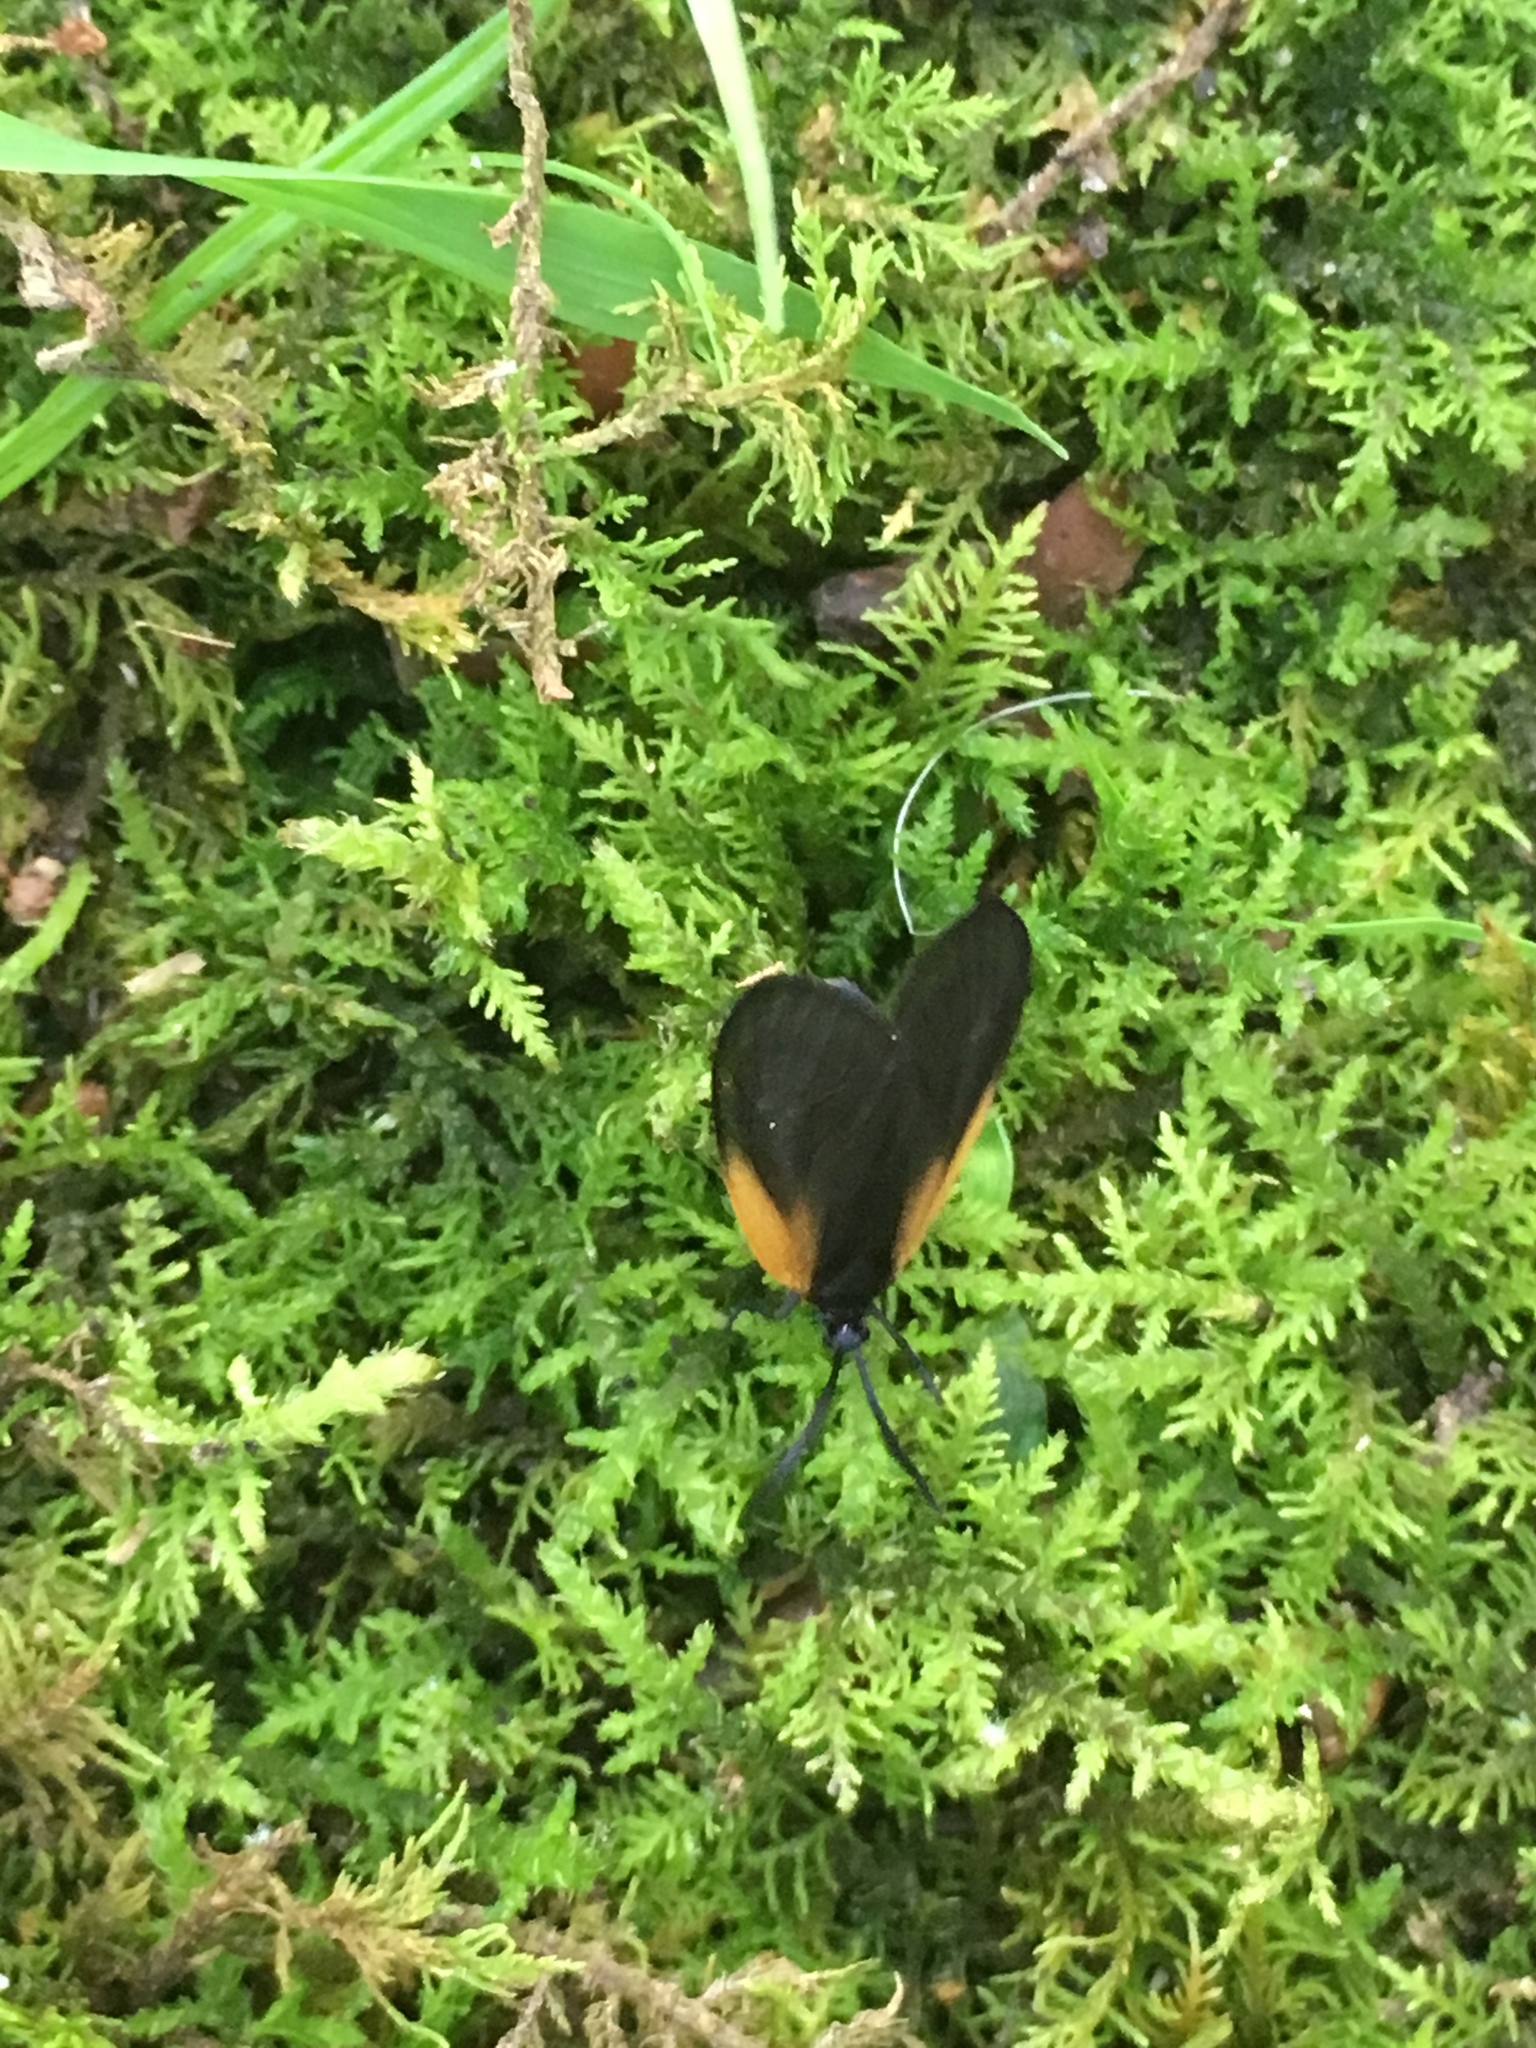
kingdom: Animalia
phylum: Arthropoda
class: Insecta
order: Lepidoptera
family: Zygaenidae
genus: Malthaca
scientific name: Malthaca dimidiata
